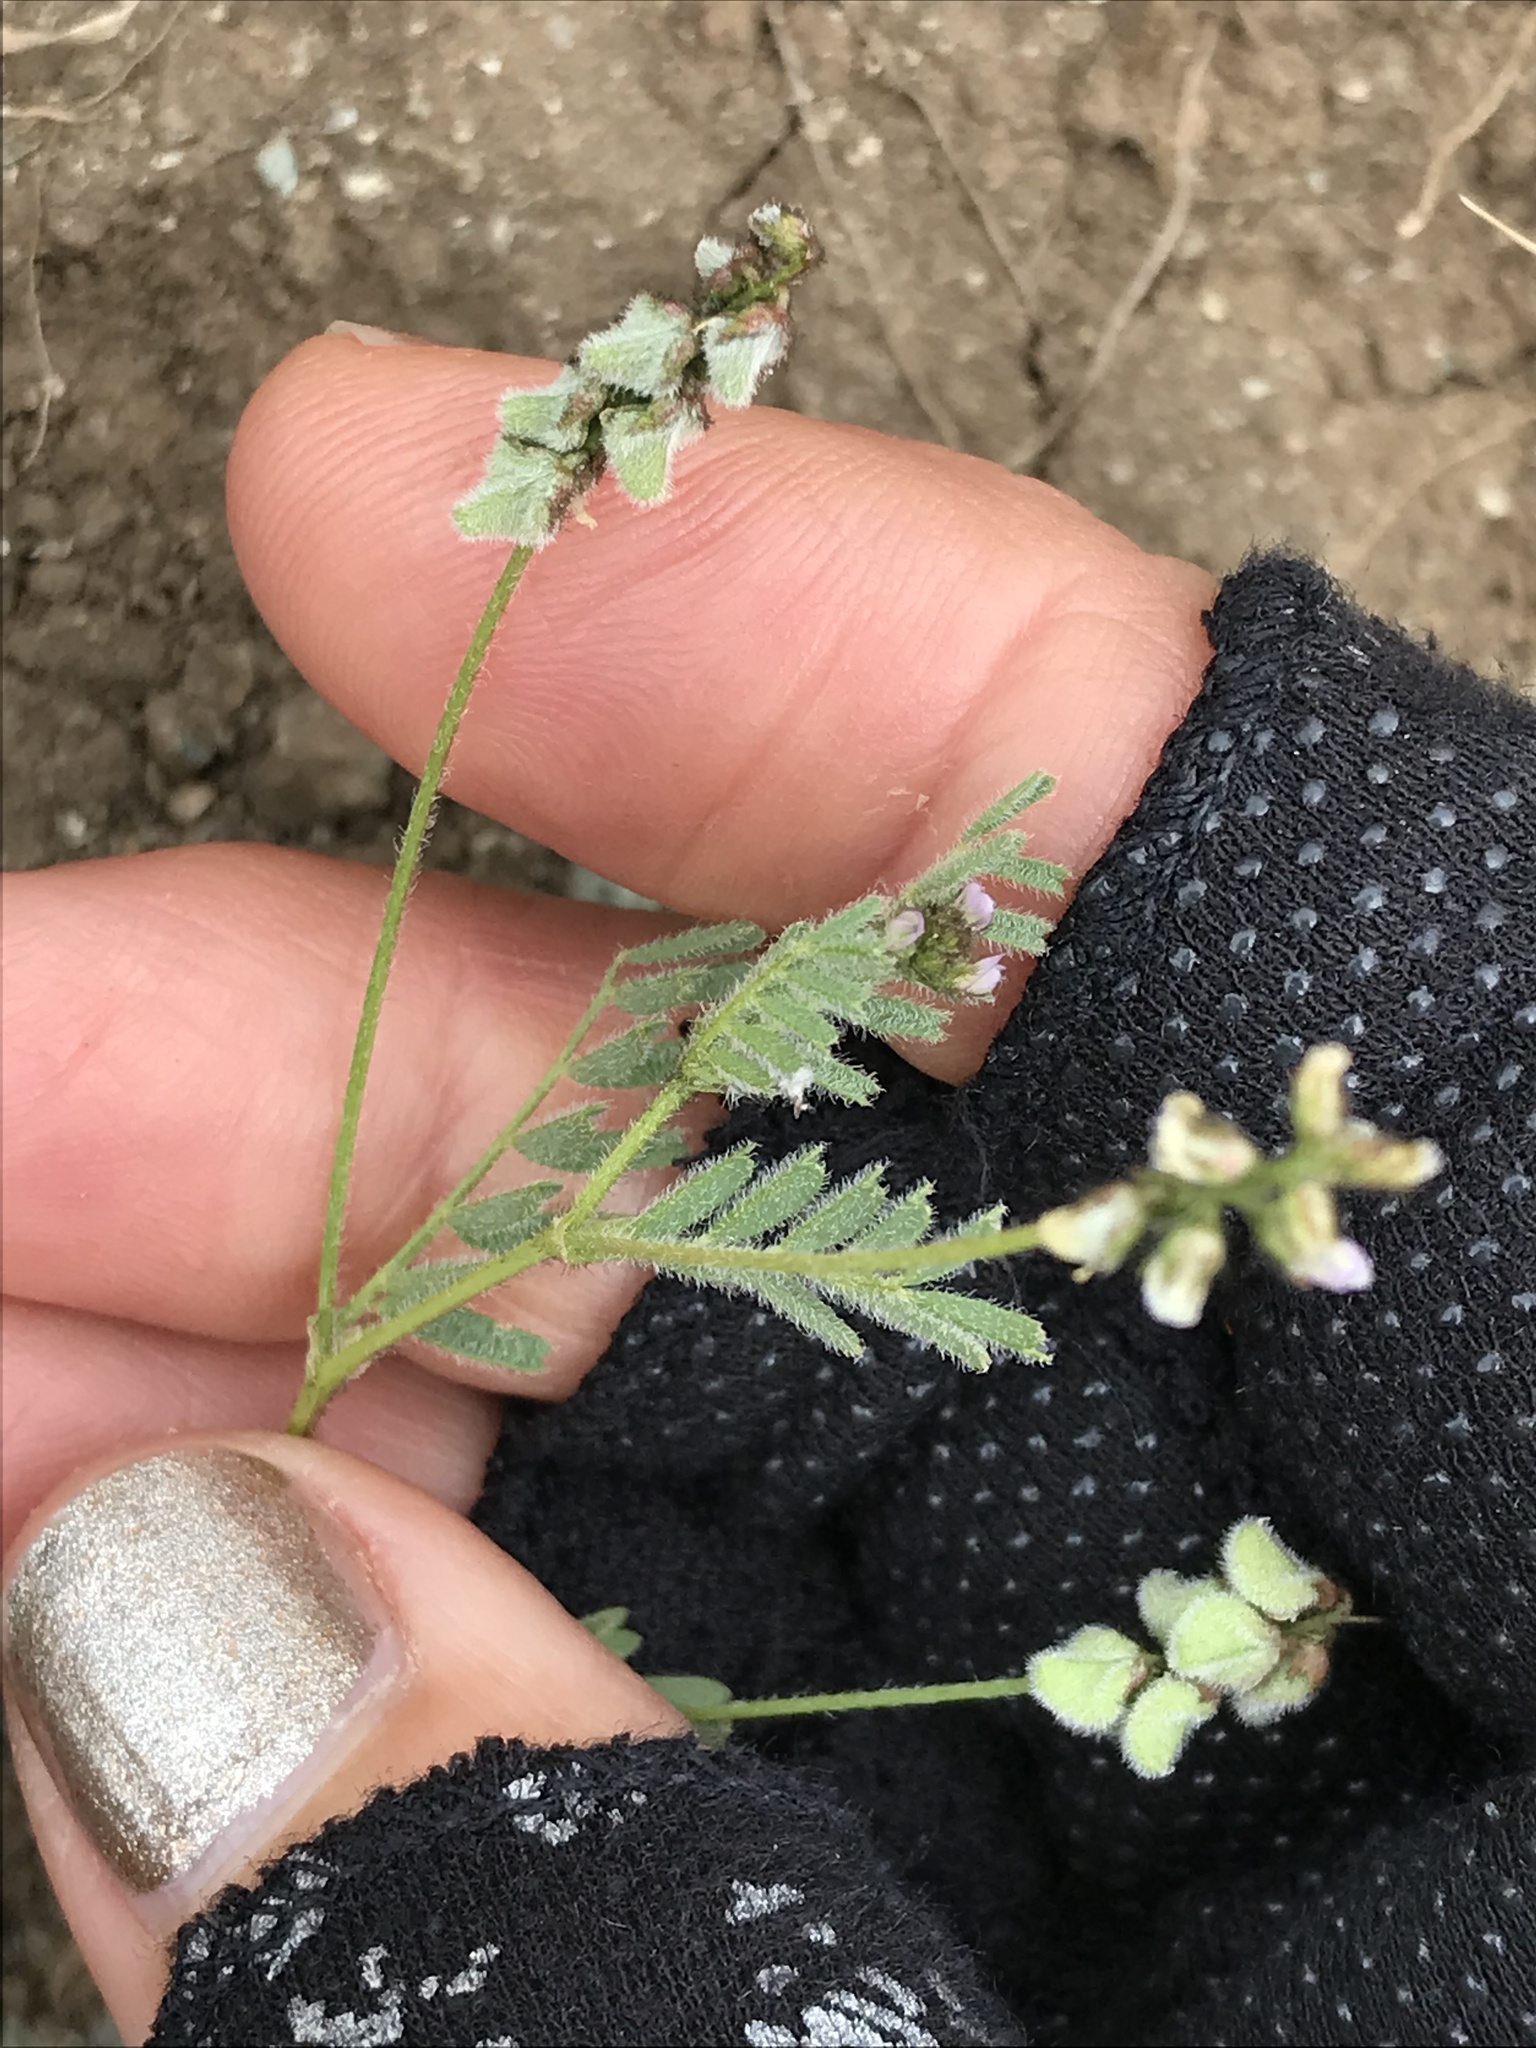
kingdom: Plantae
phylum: Tracheophyta
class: Magnoliopsida
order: Fabales
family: Fabaceae
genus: Astragalus
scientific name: Astragalus gambelianus
